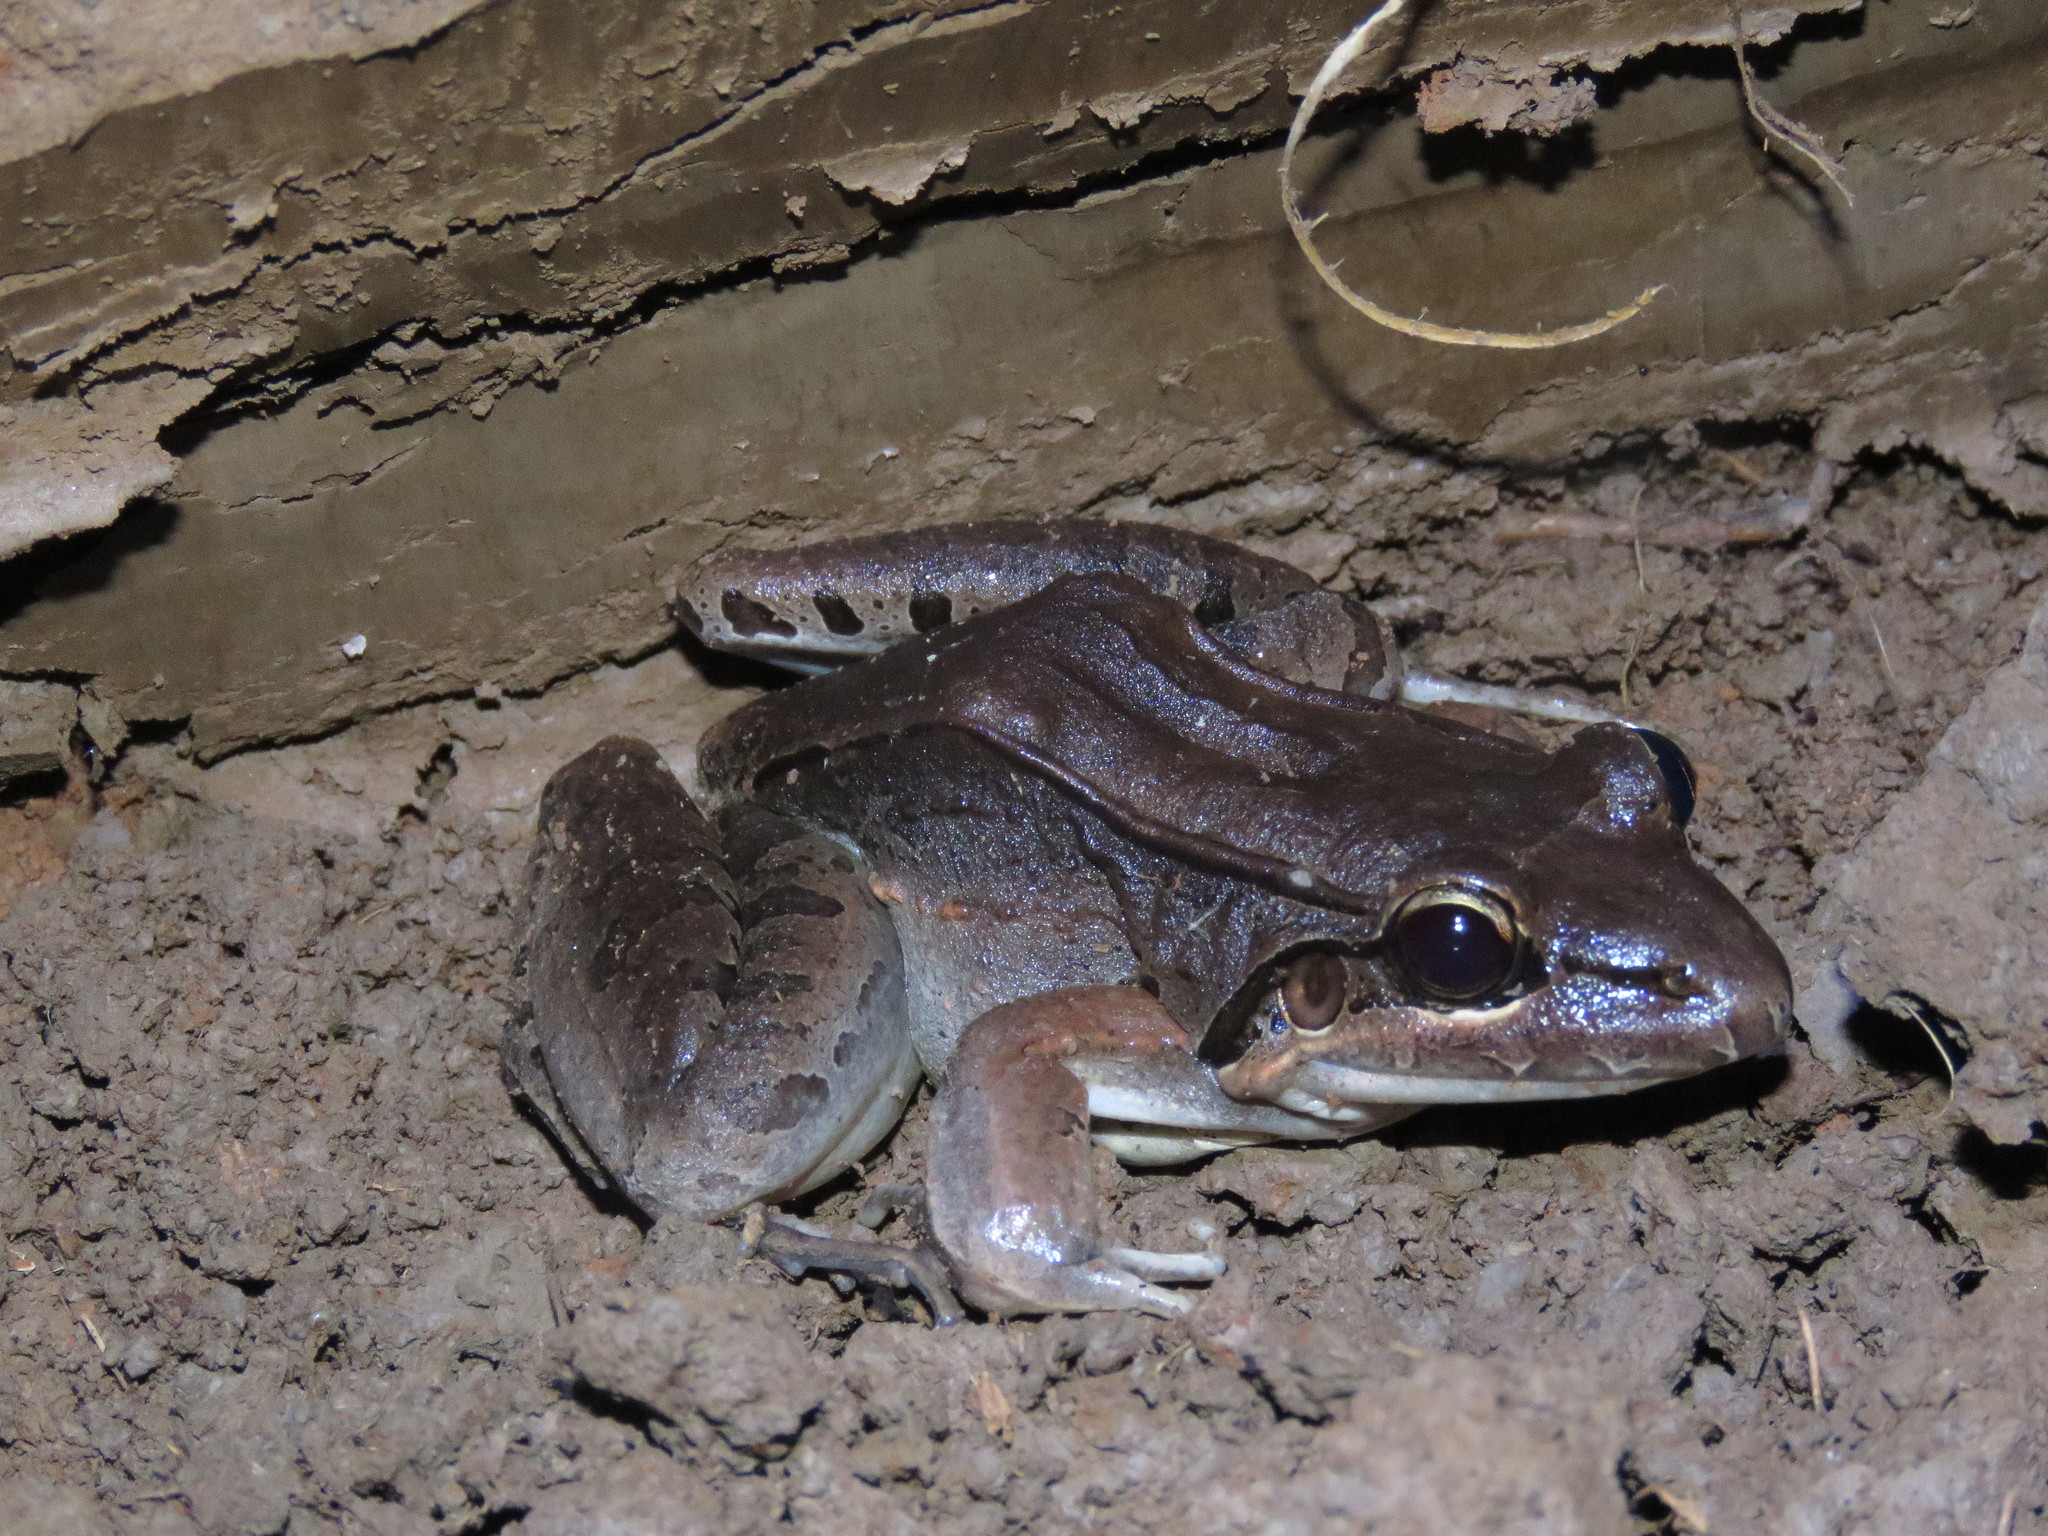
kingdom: Animalia
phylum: Chordata
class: Amphibia
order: Anura
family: Leptodactylidae
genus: Leptodactylus
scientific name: Leptodactylus bolivianus
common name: Bolivian white-lipped frog
